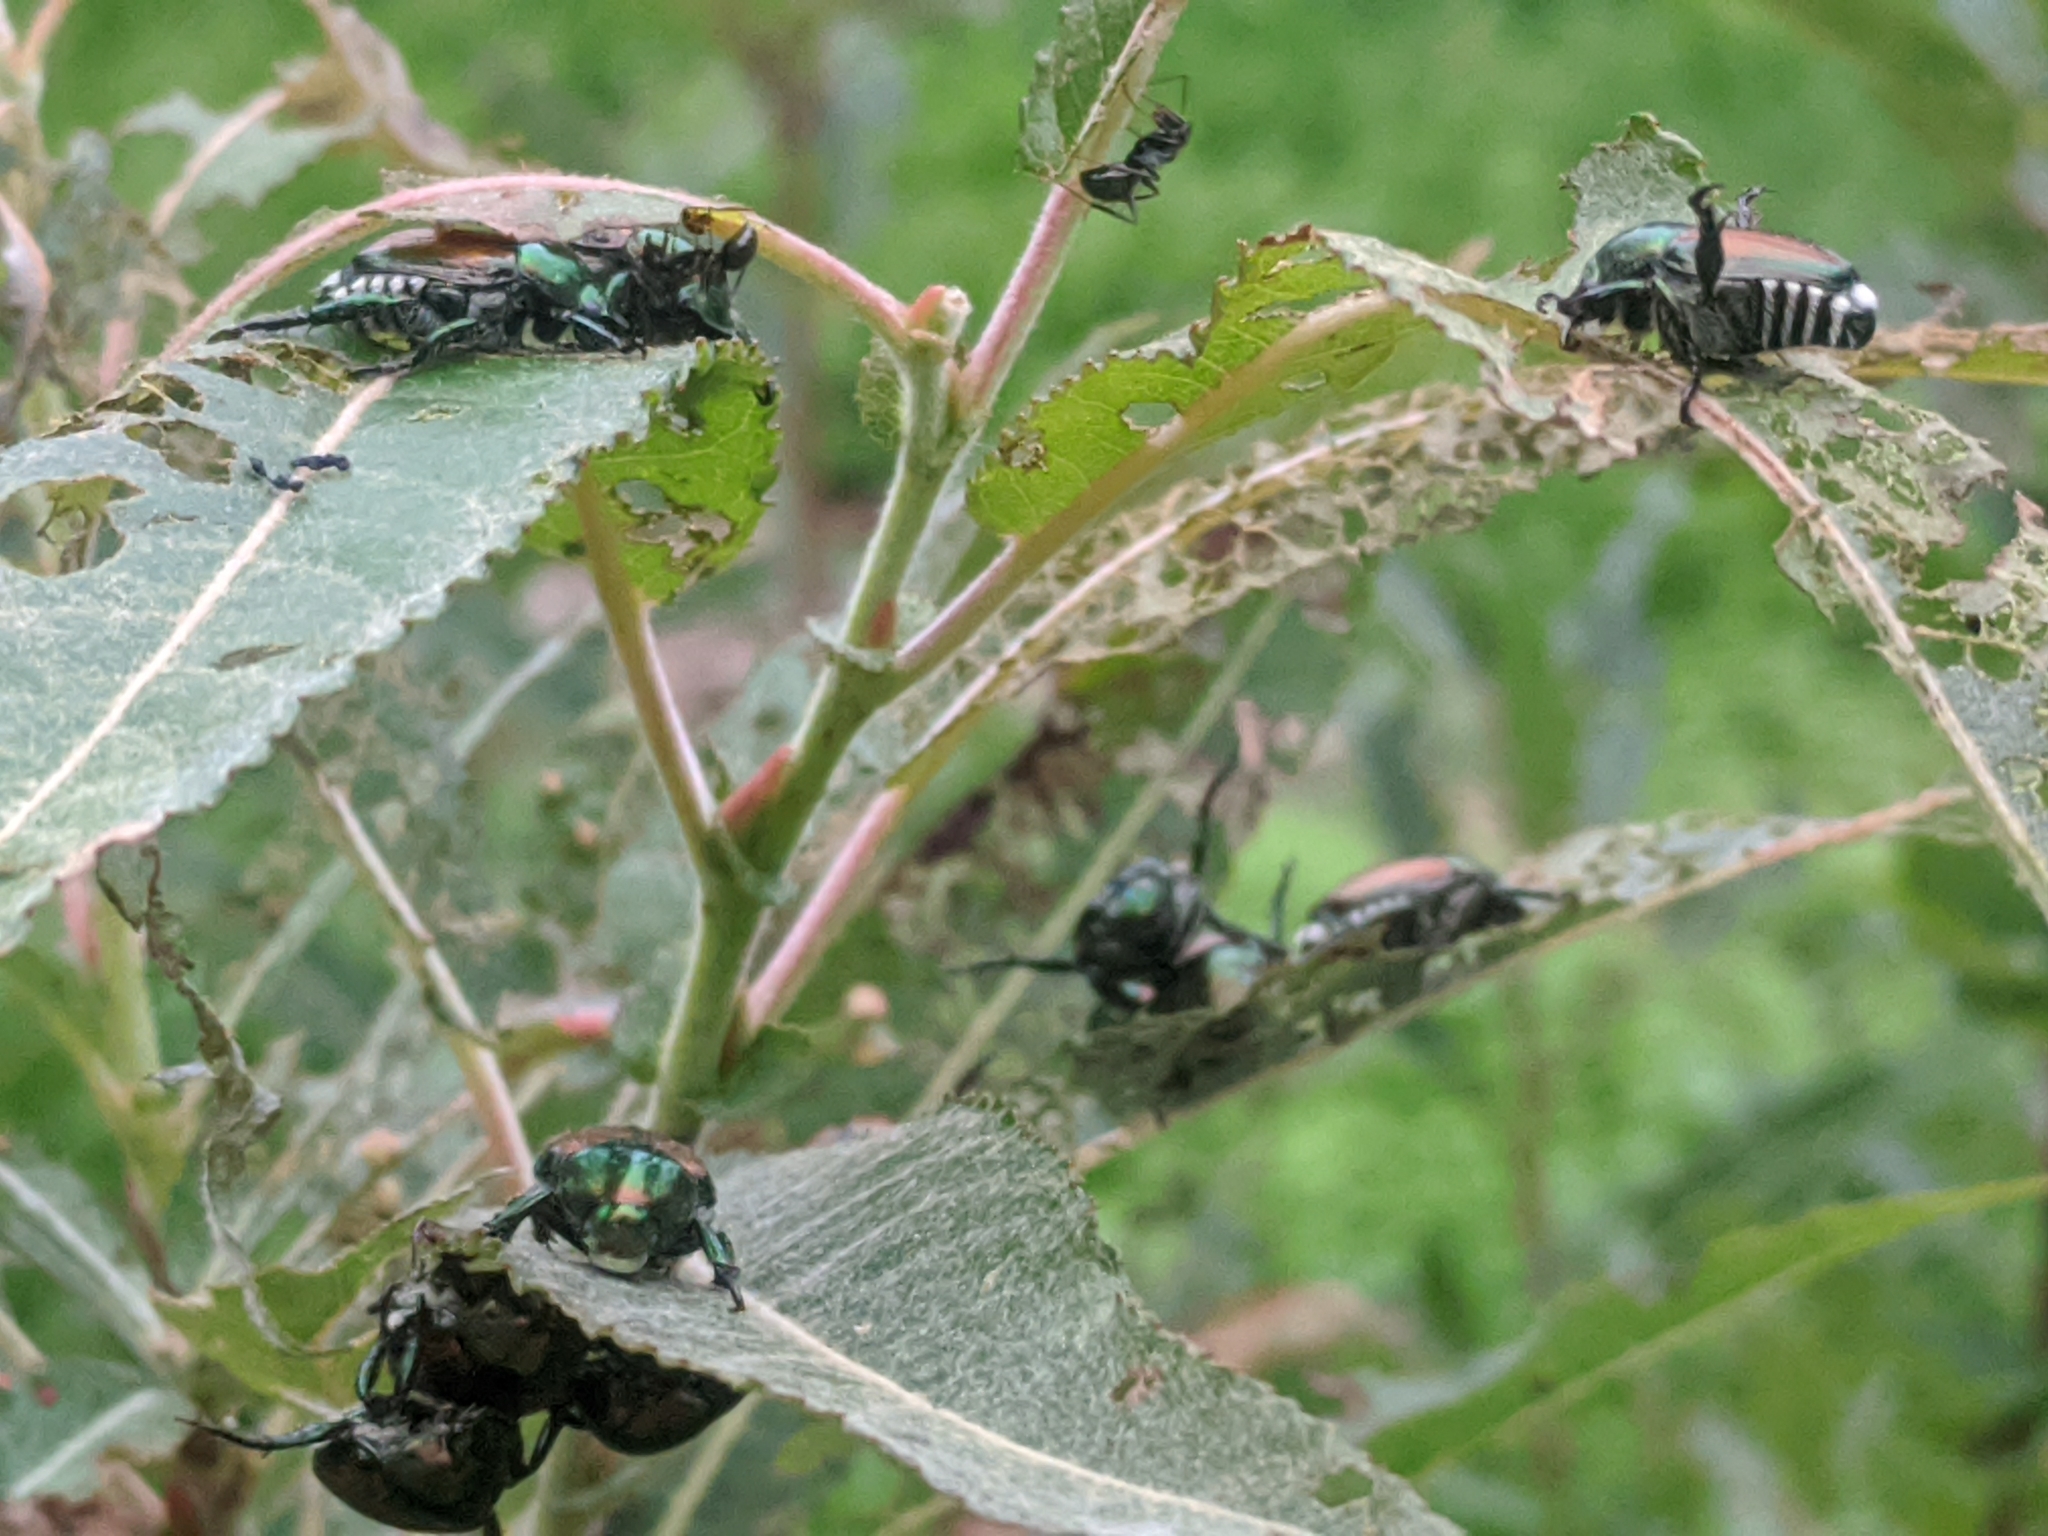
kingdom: Animalia
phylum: Arthropoda
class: Insecta
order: Coleoptera
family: Scarabaeidae
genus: Popillia
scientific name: Popillia japonica
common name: Japanese beetle
